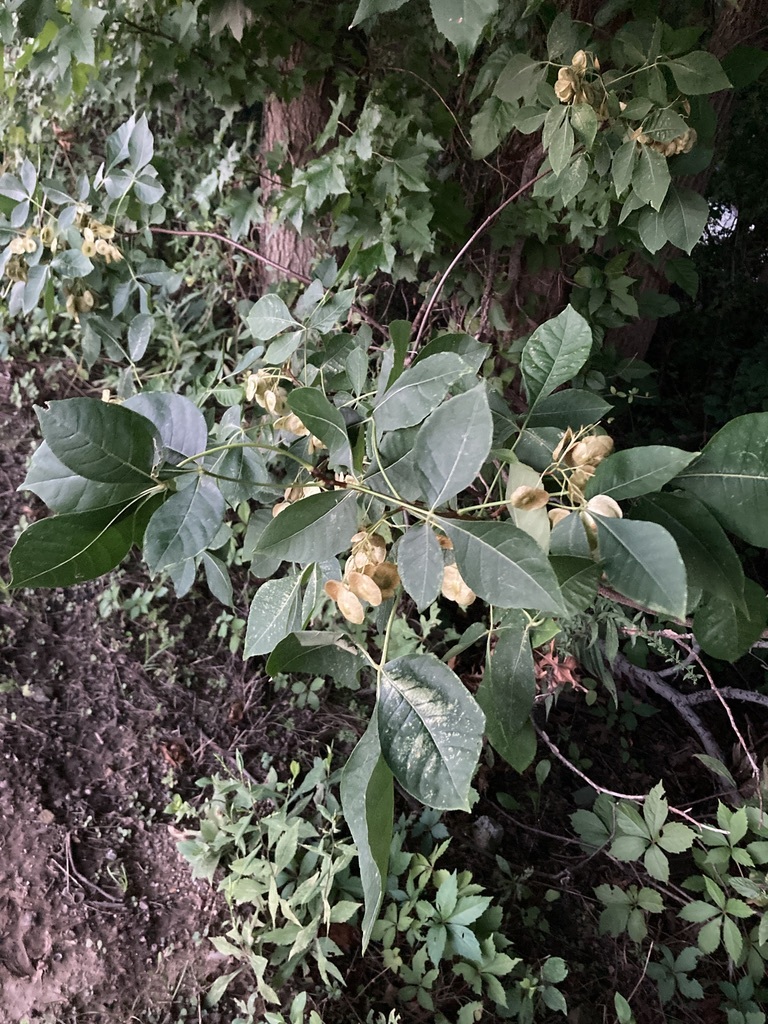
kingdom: Plantae
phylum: Tracheophyta
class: Magnoliopsida
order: Sapindales
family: Rutaceae
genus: Ptelea
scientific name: Ptelea trifoliata
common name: Common hop-tree
